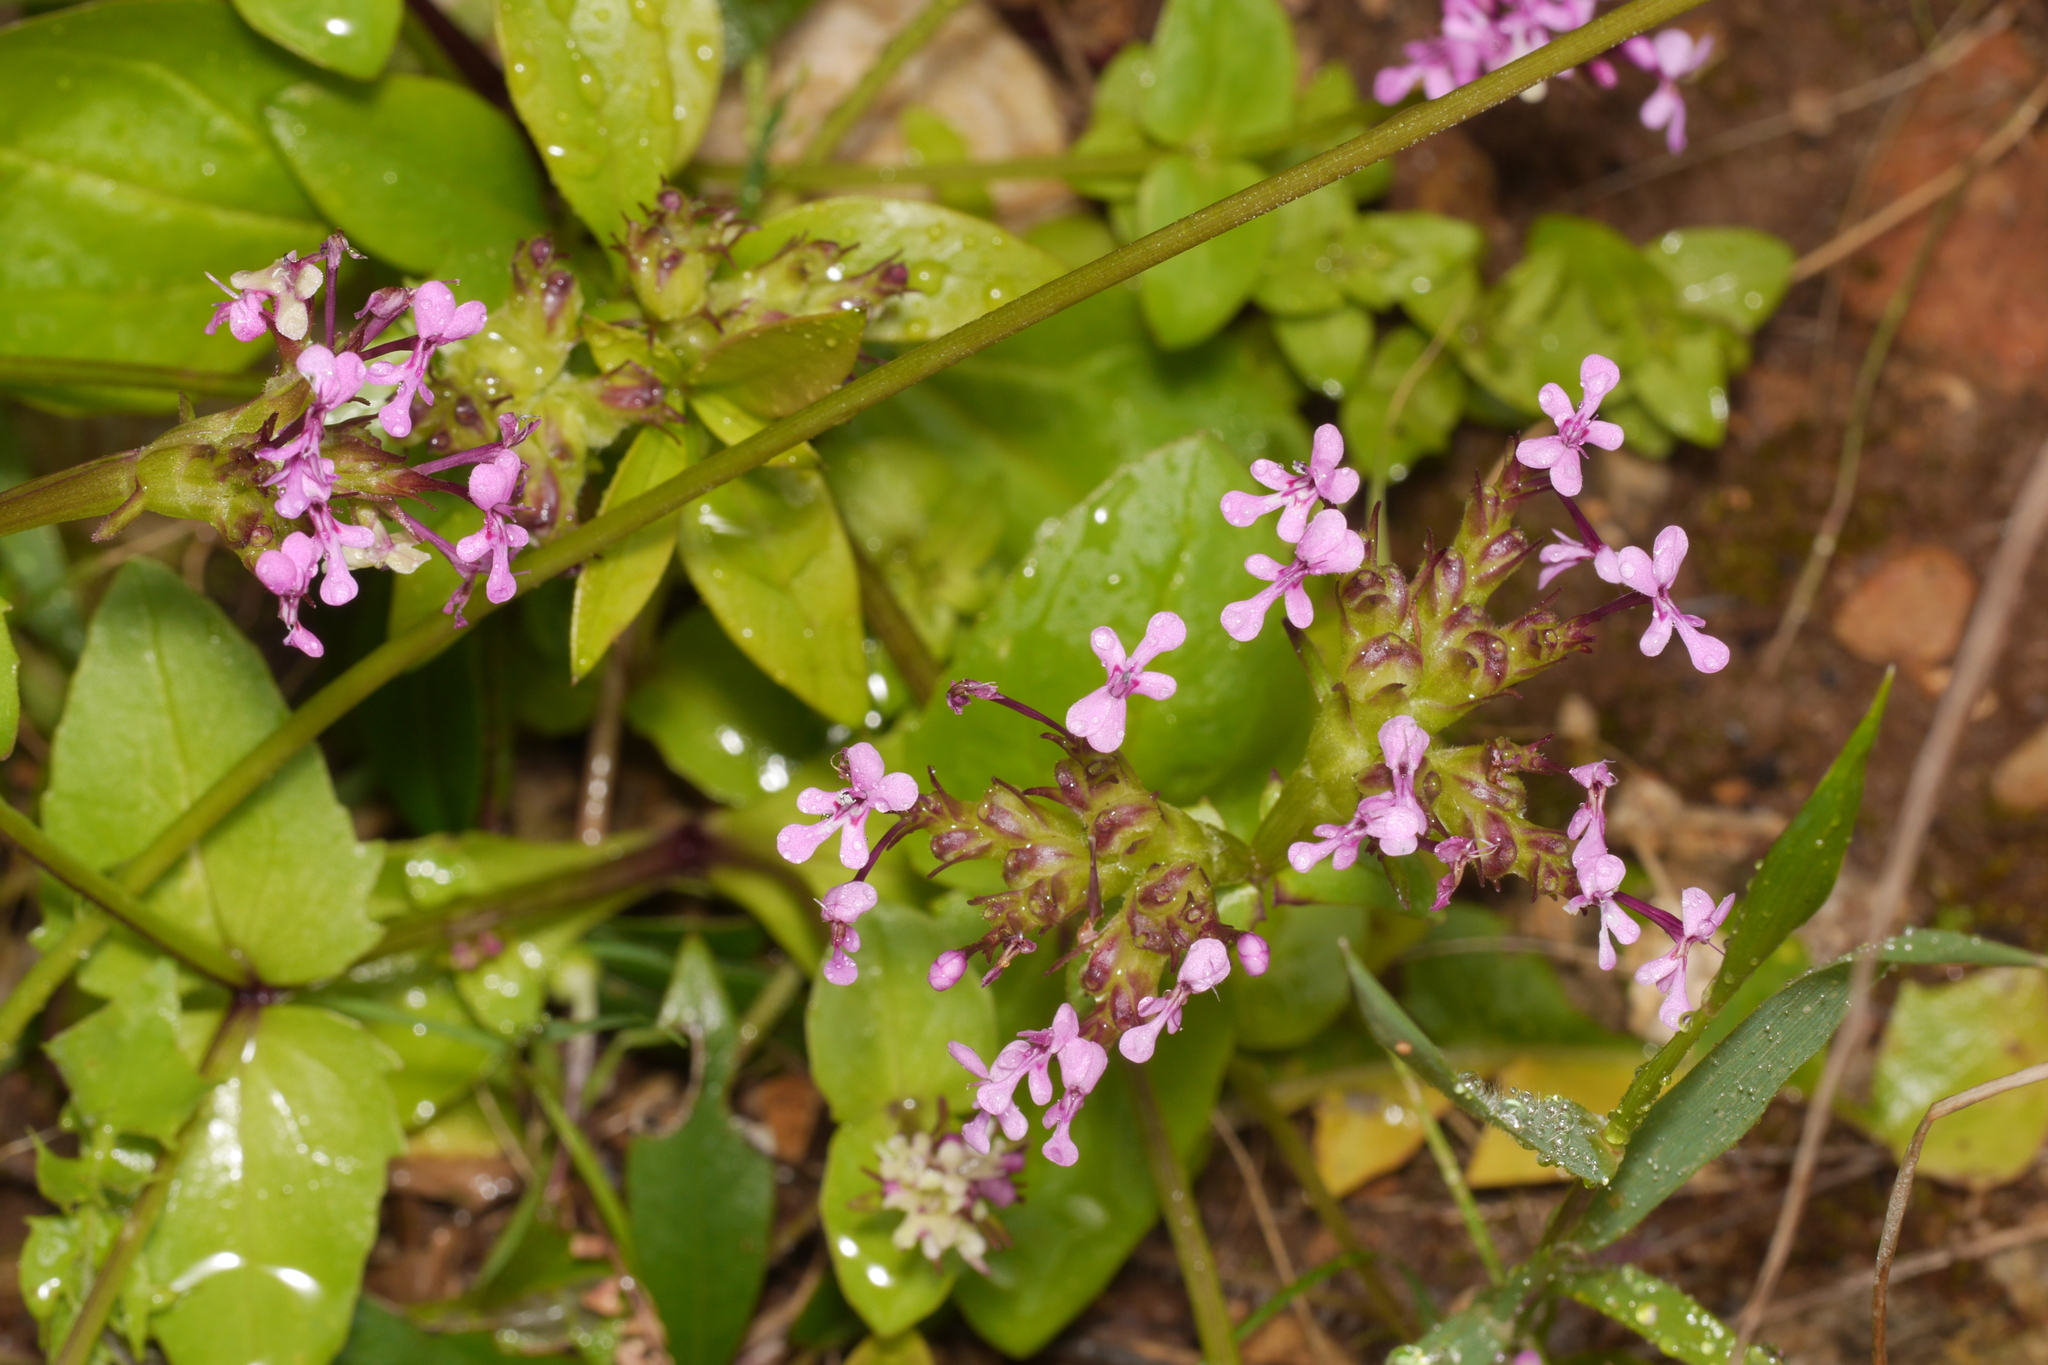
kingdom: Plantae
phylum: Tracheophyta
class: Magnoliopsida
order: Dipsacales
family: Caprifoliaceae
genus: Fedia
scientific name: Fedia graciliflora
